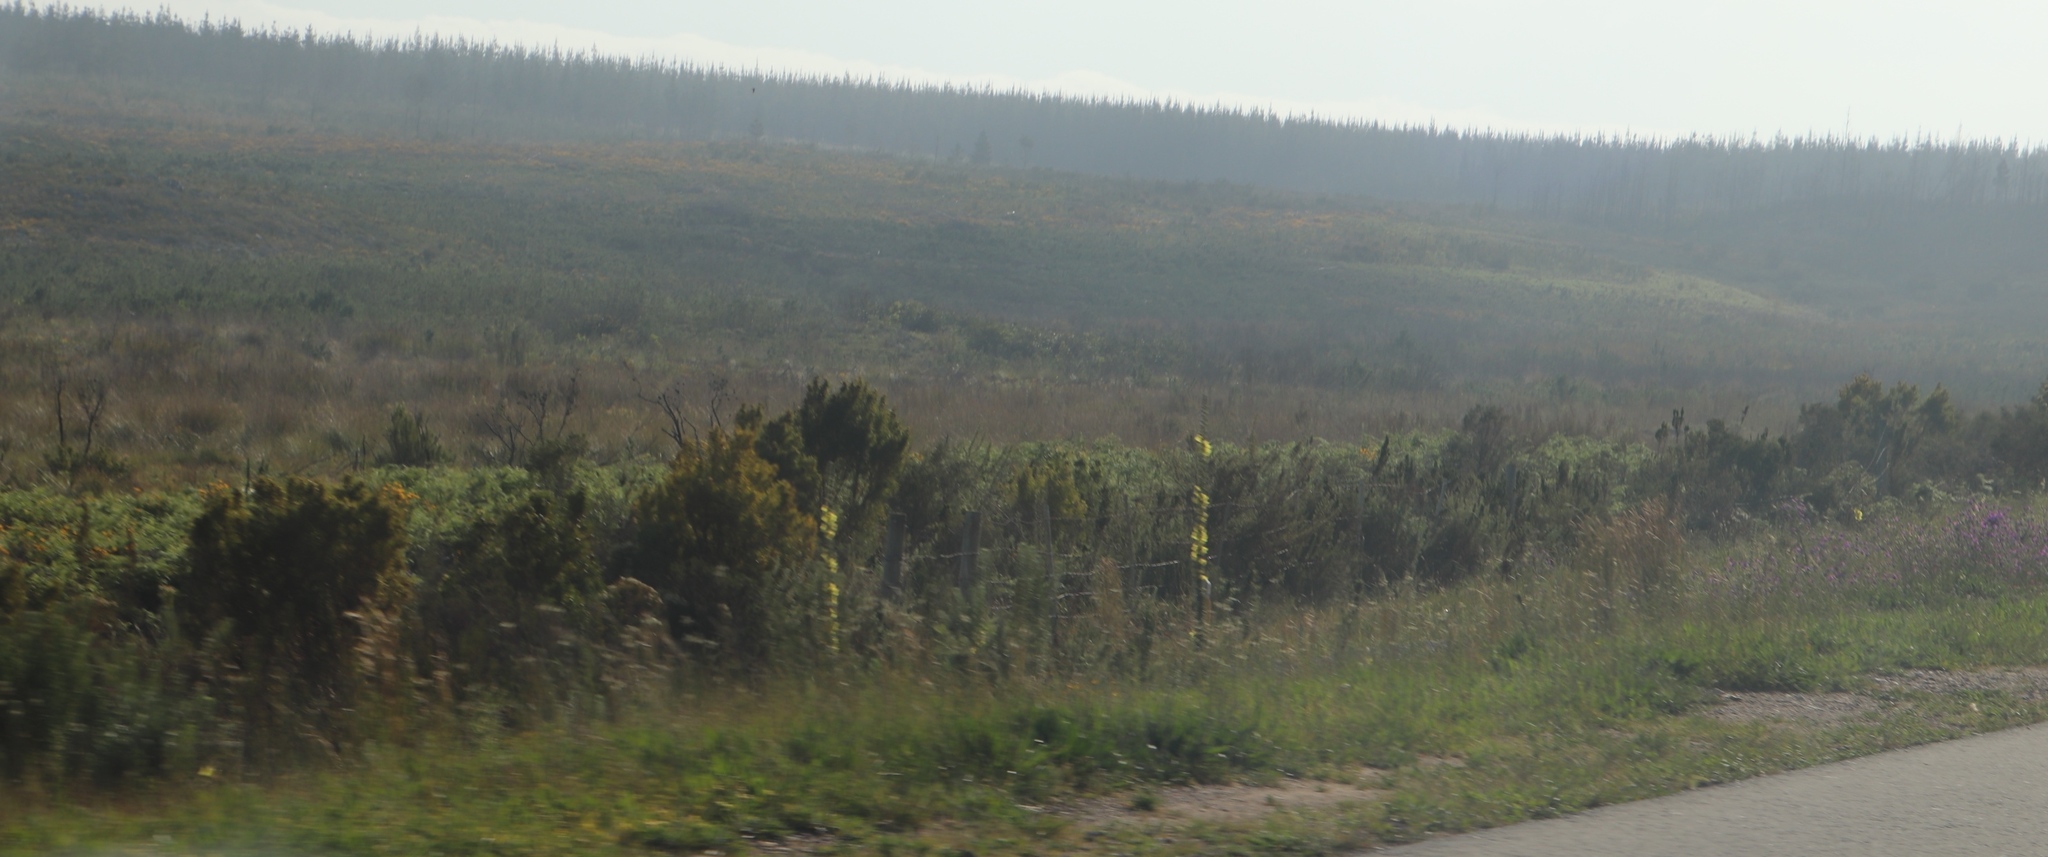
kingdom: Plantae
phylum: Tracheophyta
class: Magnoliopsida
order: Lamiales
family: Scrophulariaceae
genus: Verbascum
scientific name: Verbascum virgatum
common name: Twiggy mullein
